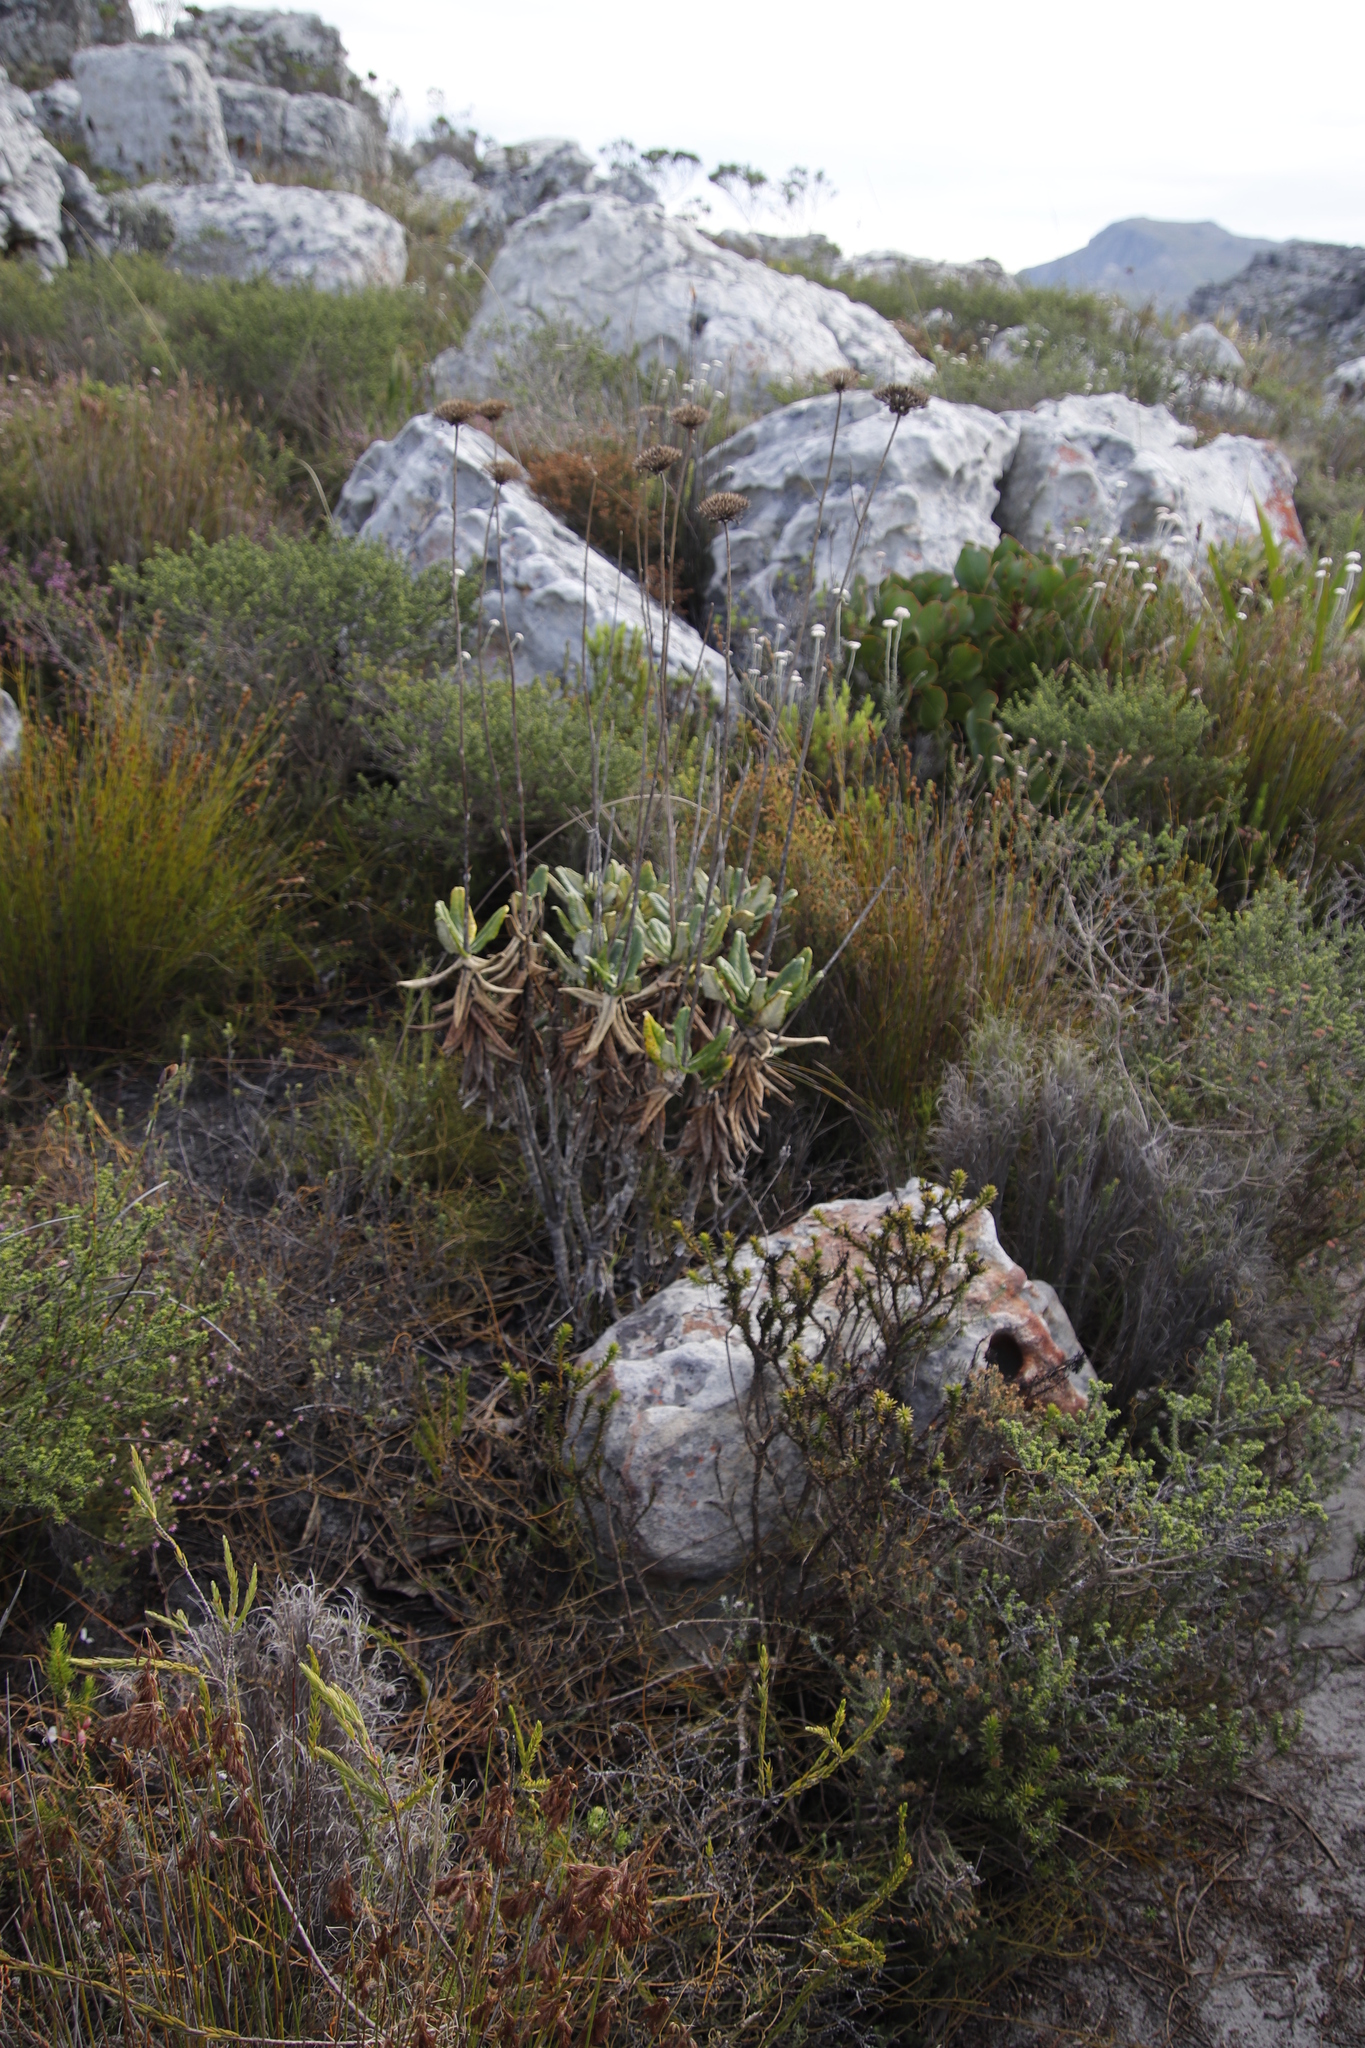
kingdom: Plantae
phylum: Tracheophyta
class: Magnoliopsida
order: Apiales
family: Apiaceae
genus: Hermas
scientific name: Hermas villosa
